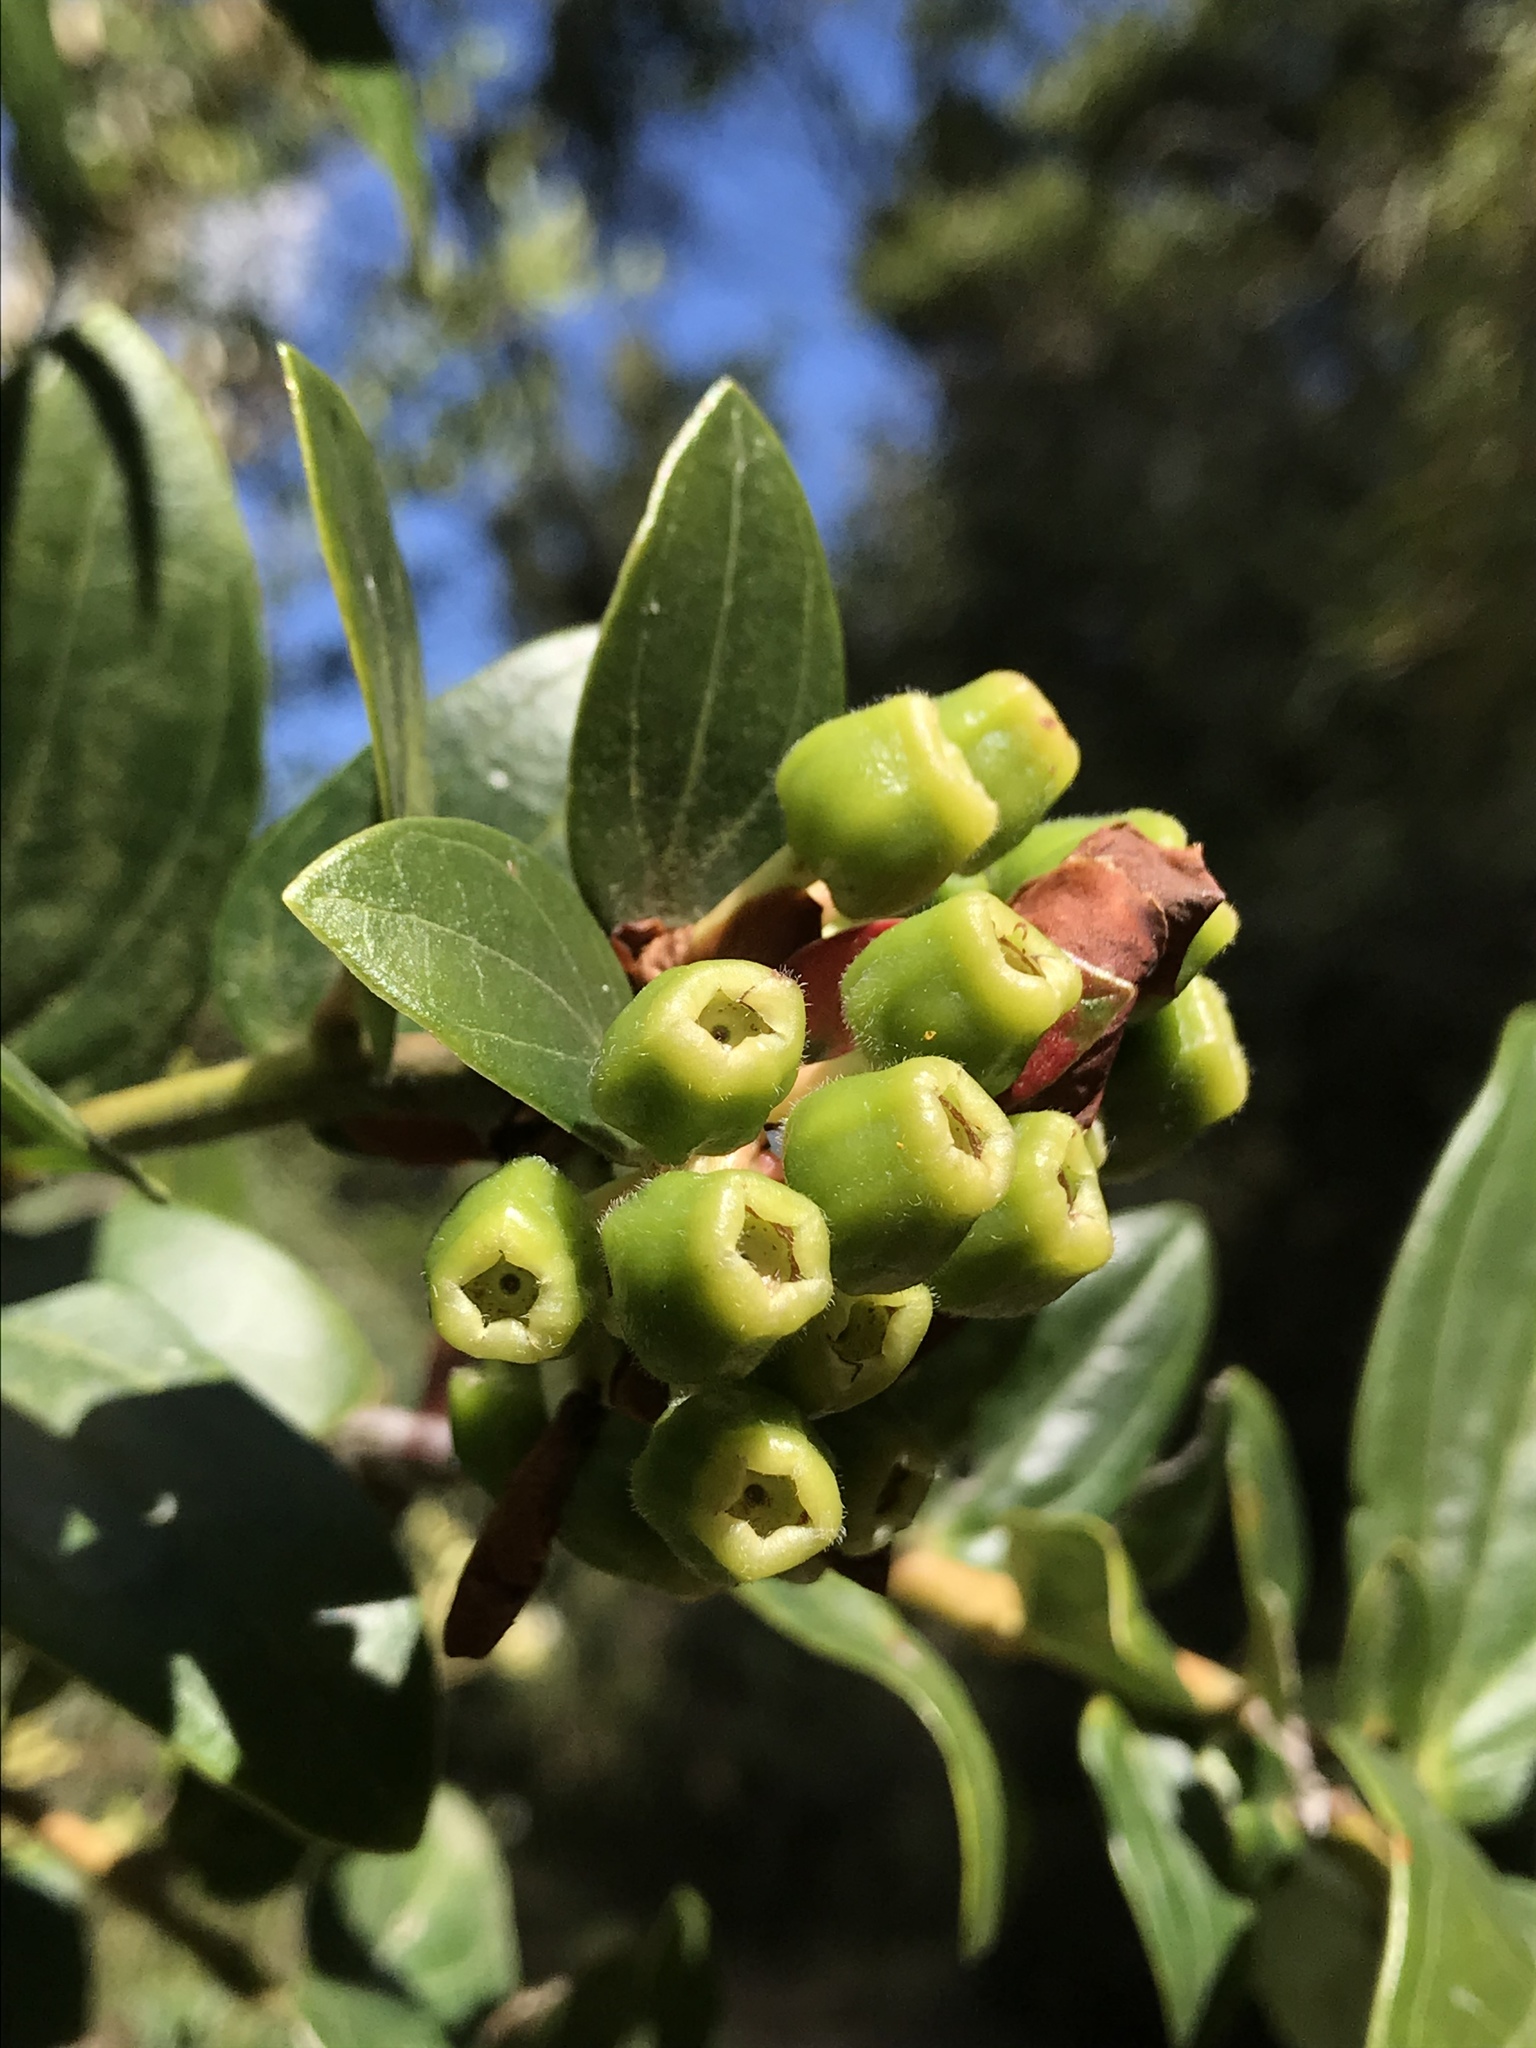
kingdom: Plantae
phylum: Tracheophyta
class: Magnoliopsida
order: Ericales
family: Ericaceae
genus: Cavendishia
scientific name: Cavendishia bracteata
